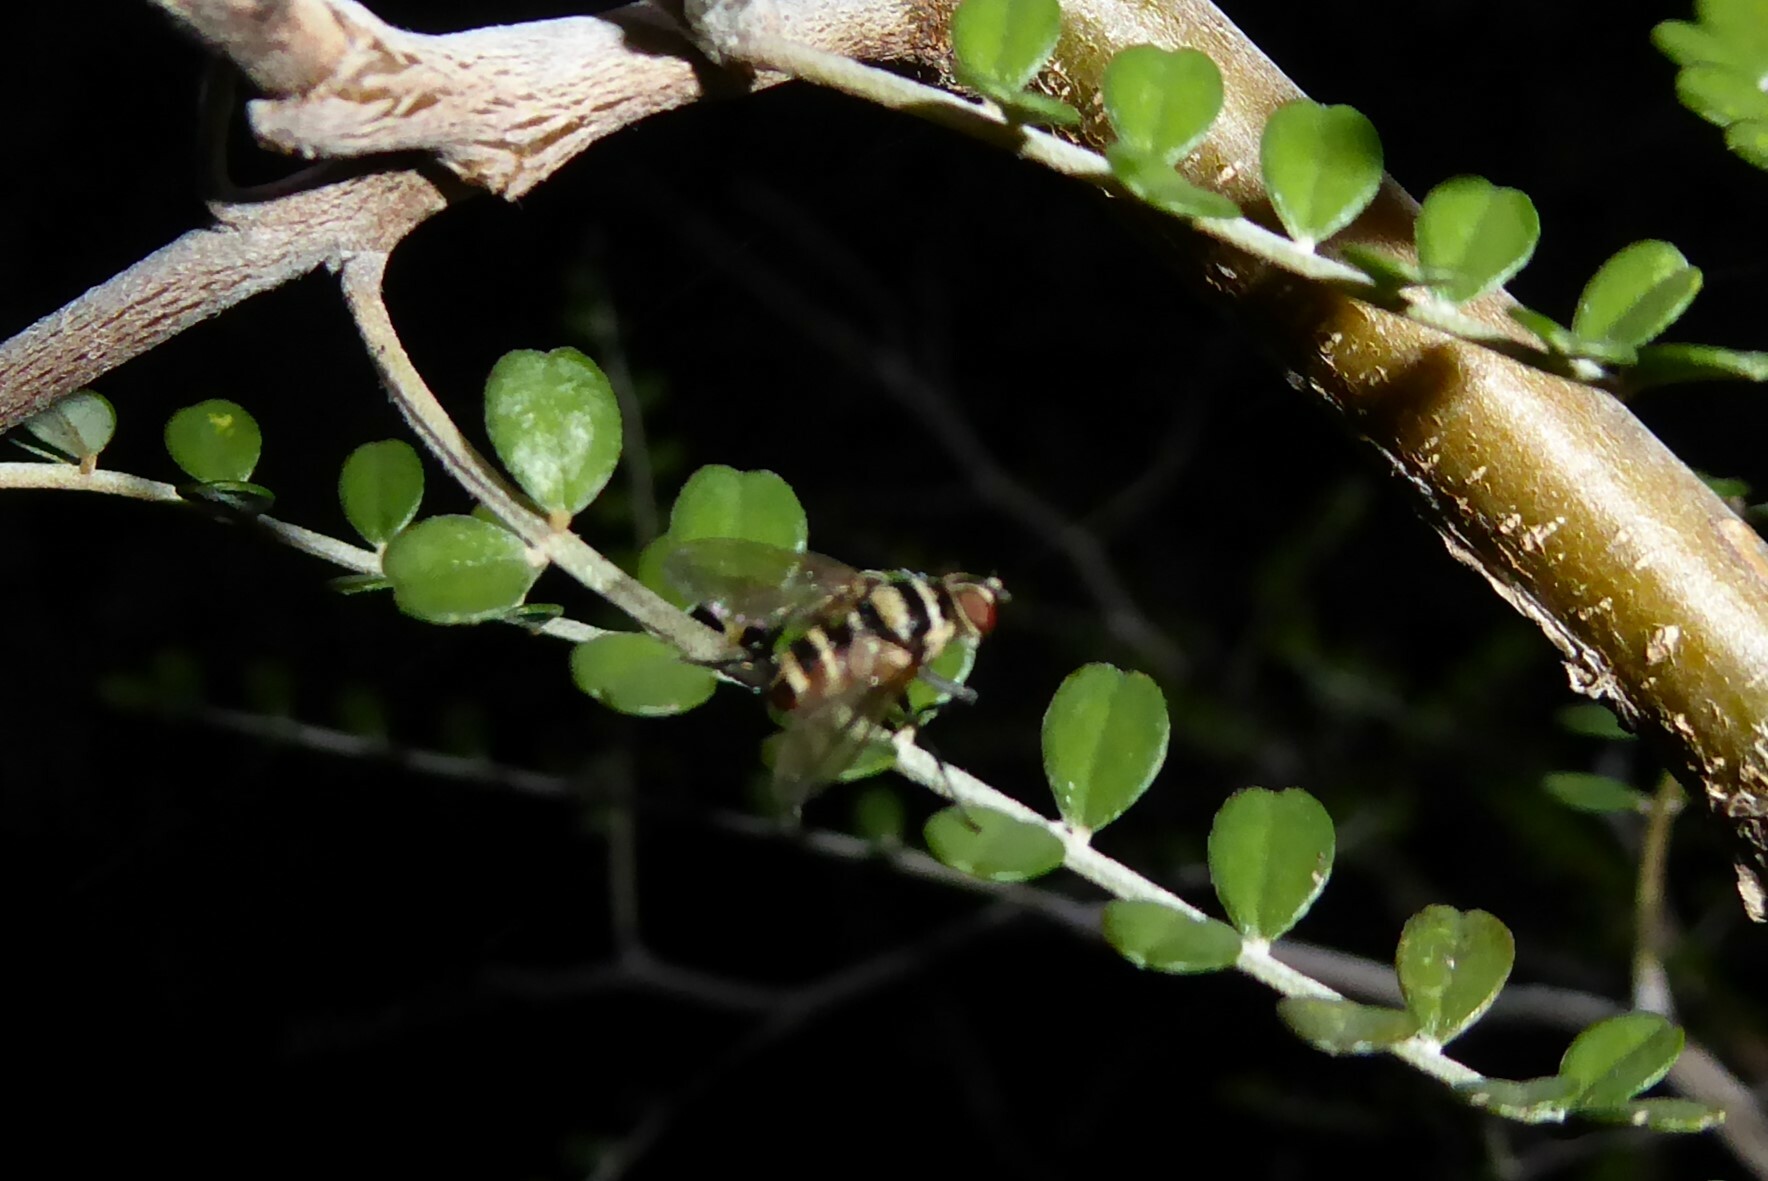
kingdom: Animalia
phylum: Arthropoda
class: Insecta
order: Diptera
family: Tachinidae
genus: Trigonospila
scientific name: Trigonospila brevifacies
